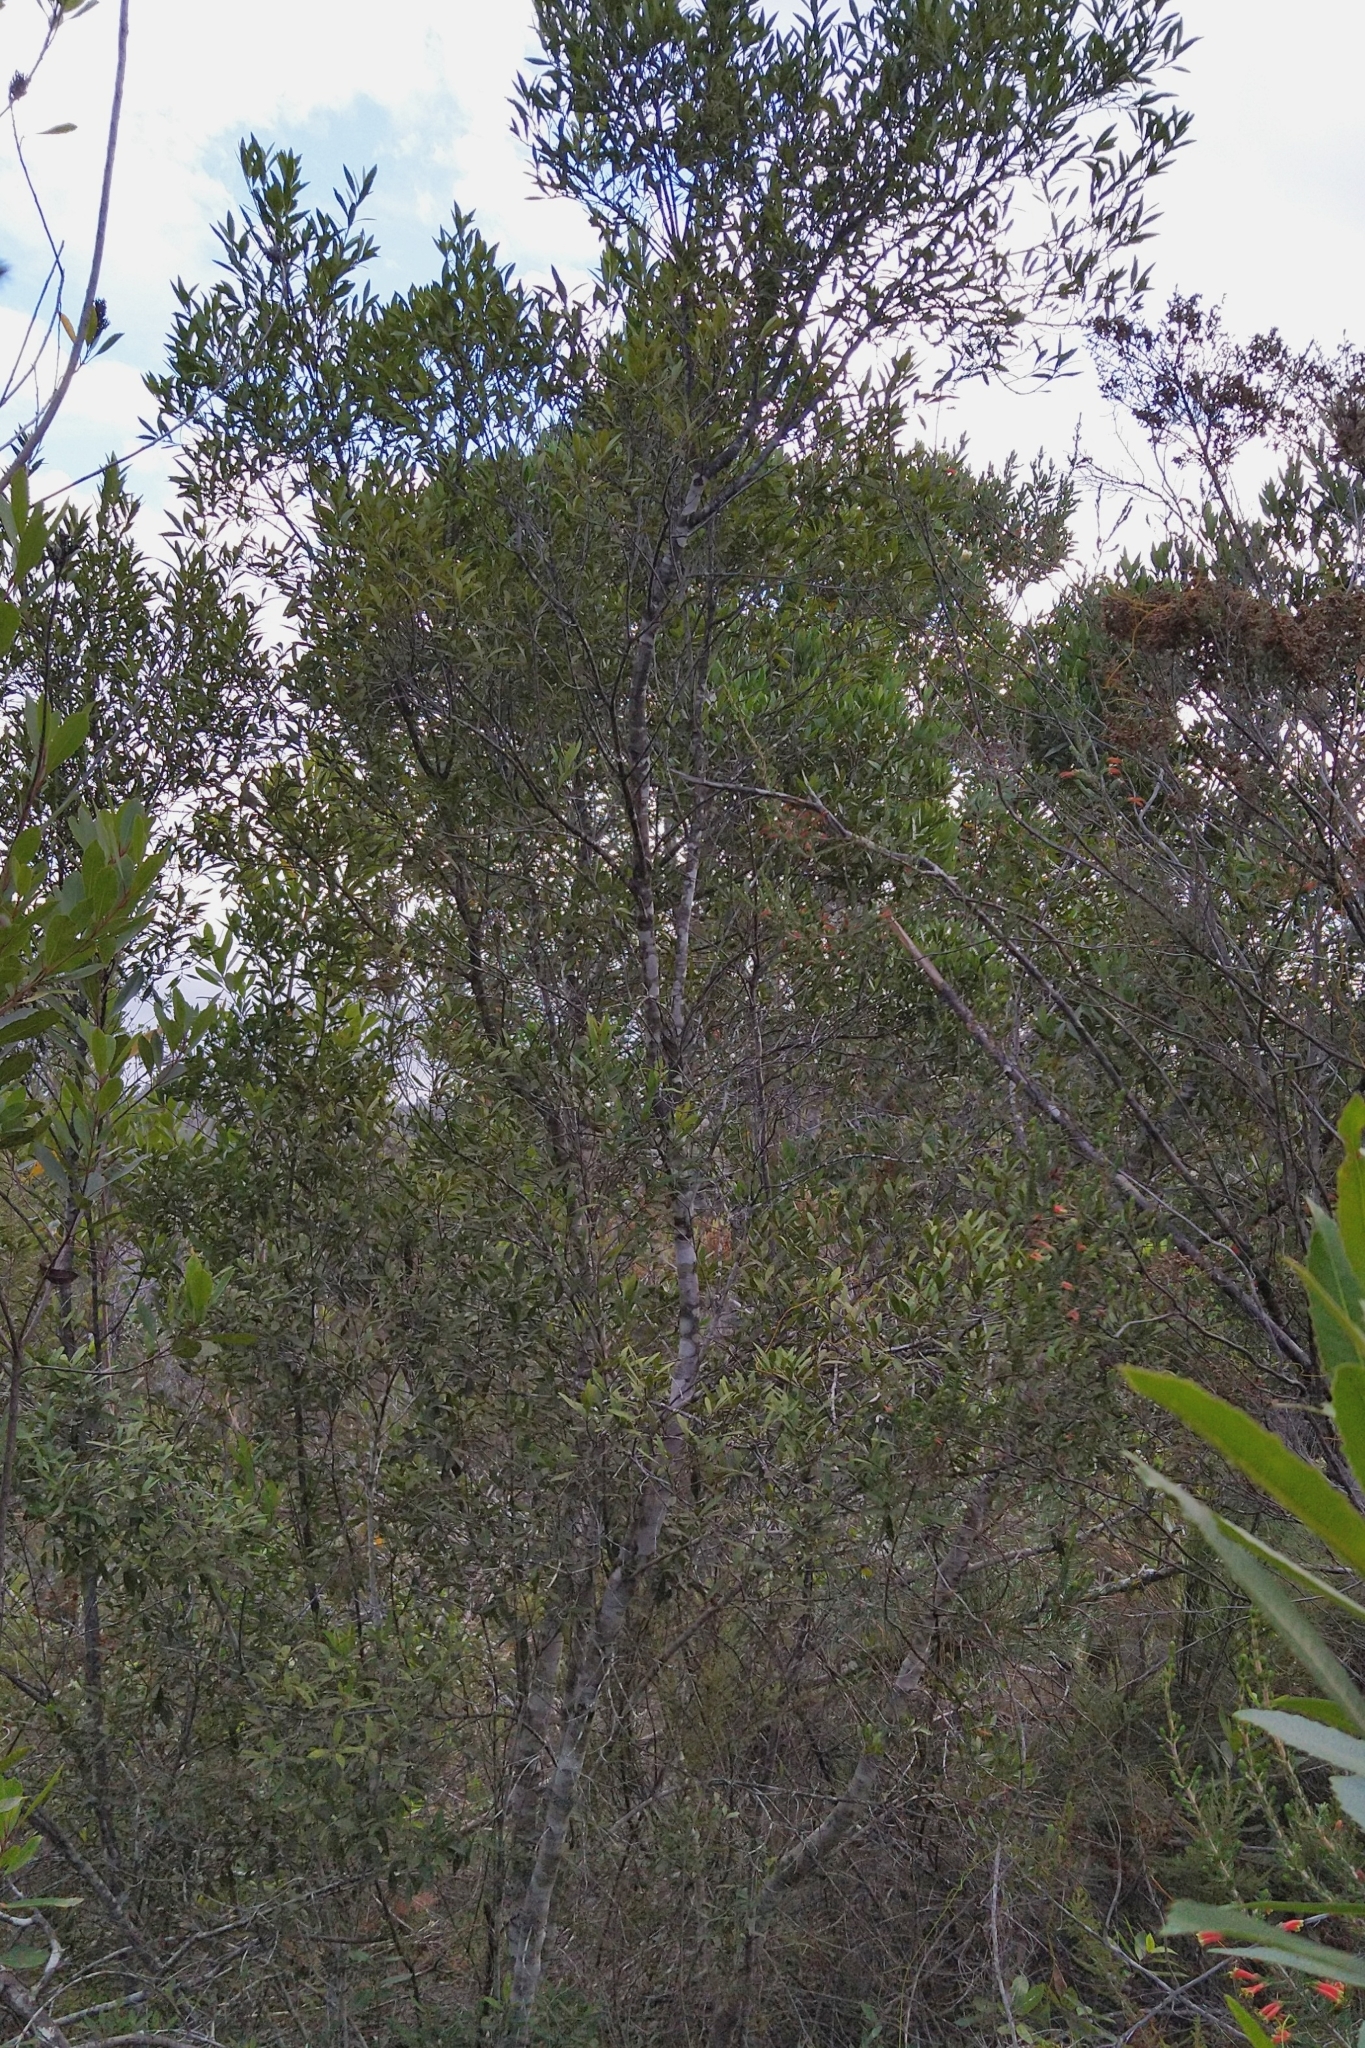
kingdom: Plantae
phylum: Tracheophyta
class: Magnoliopsida
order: Celastrales
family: Celastraceae
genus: Elaeodendron
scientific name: Elaeodendron schinoides
